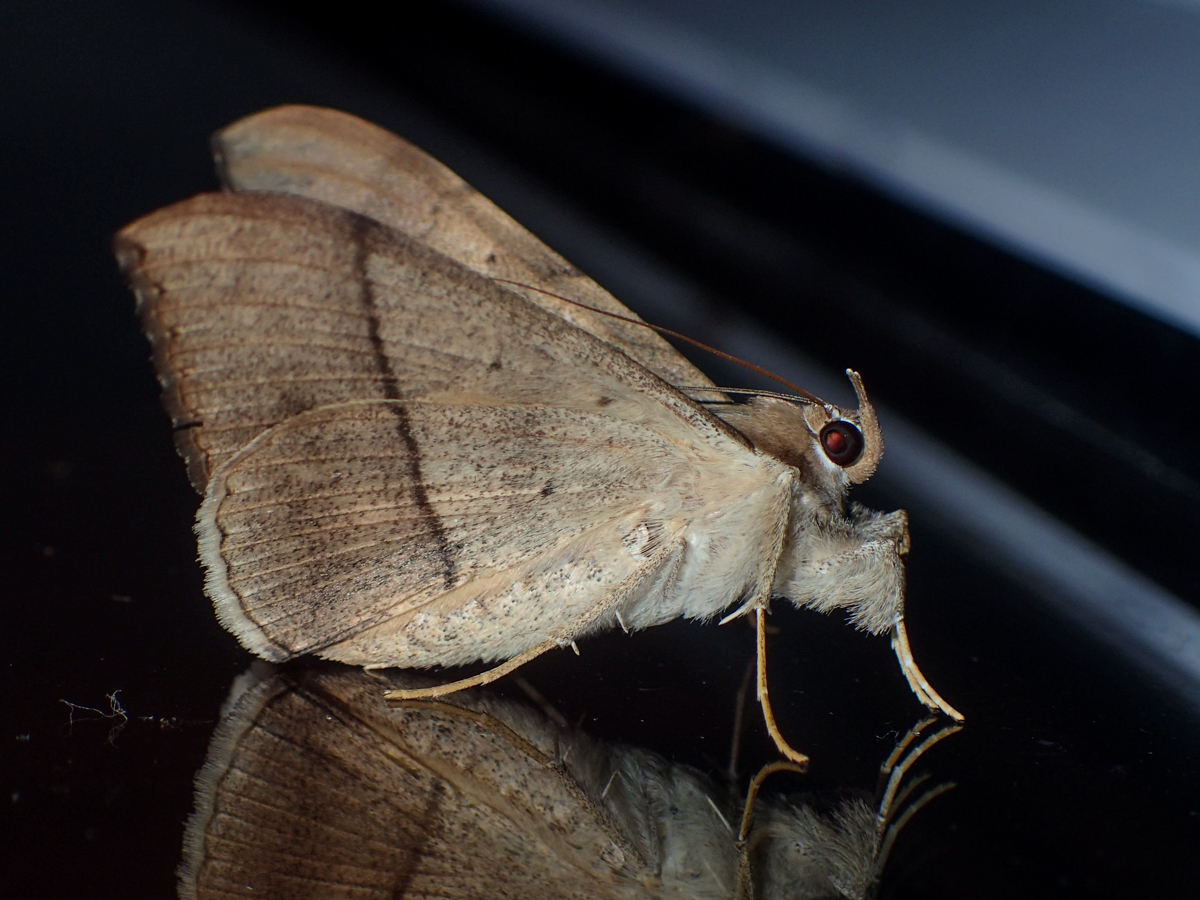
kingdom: Animalia
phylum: Arthropoda
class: Insecta
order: Lepidoptera
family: Erebidae
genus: Oxyodes
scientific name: Oxyodes scrobiculata
